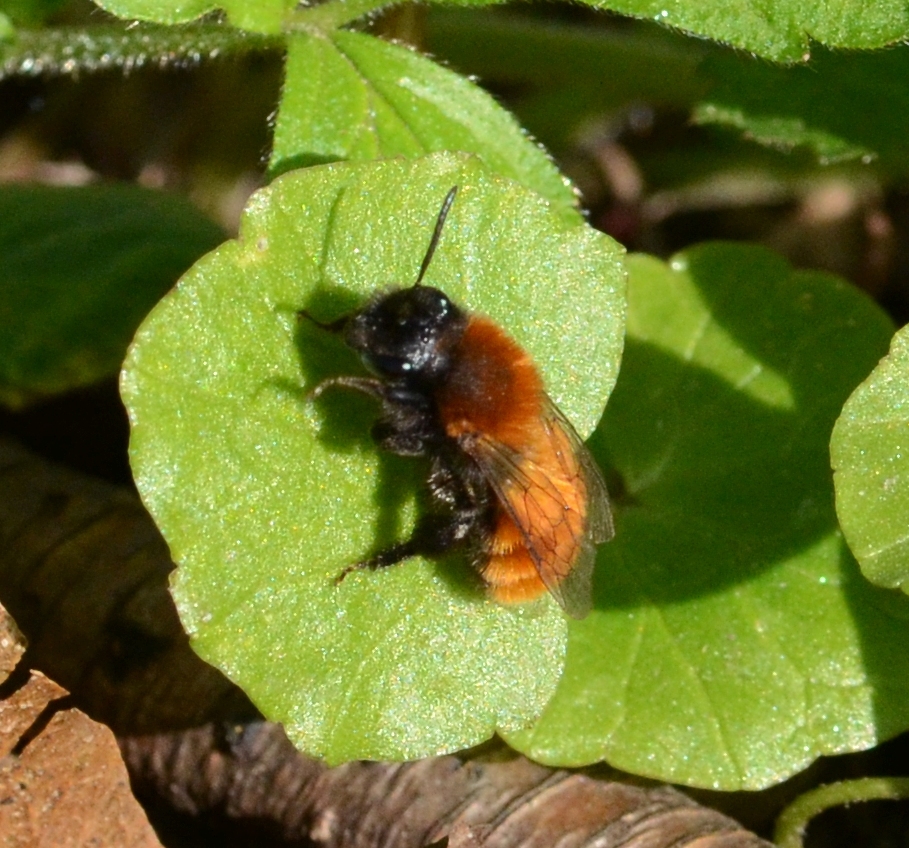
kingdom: Animalia
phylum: Arthropoda
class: Insecta
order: Hymenoptera
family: Andrenidae
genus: Andrena
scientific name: Andrena fulva
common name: Tawny mining bee
